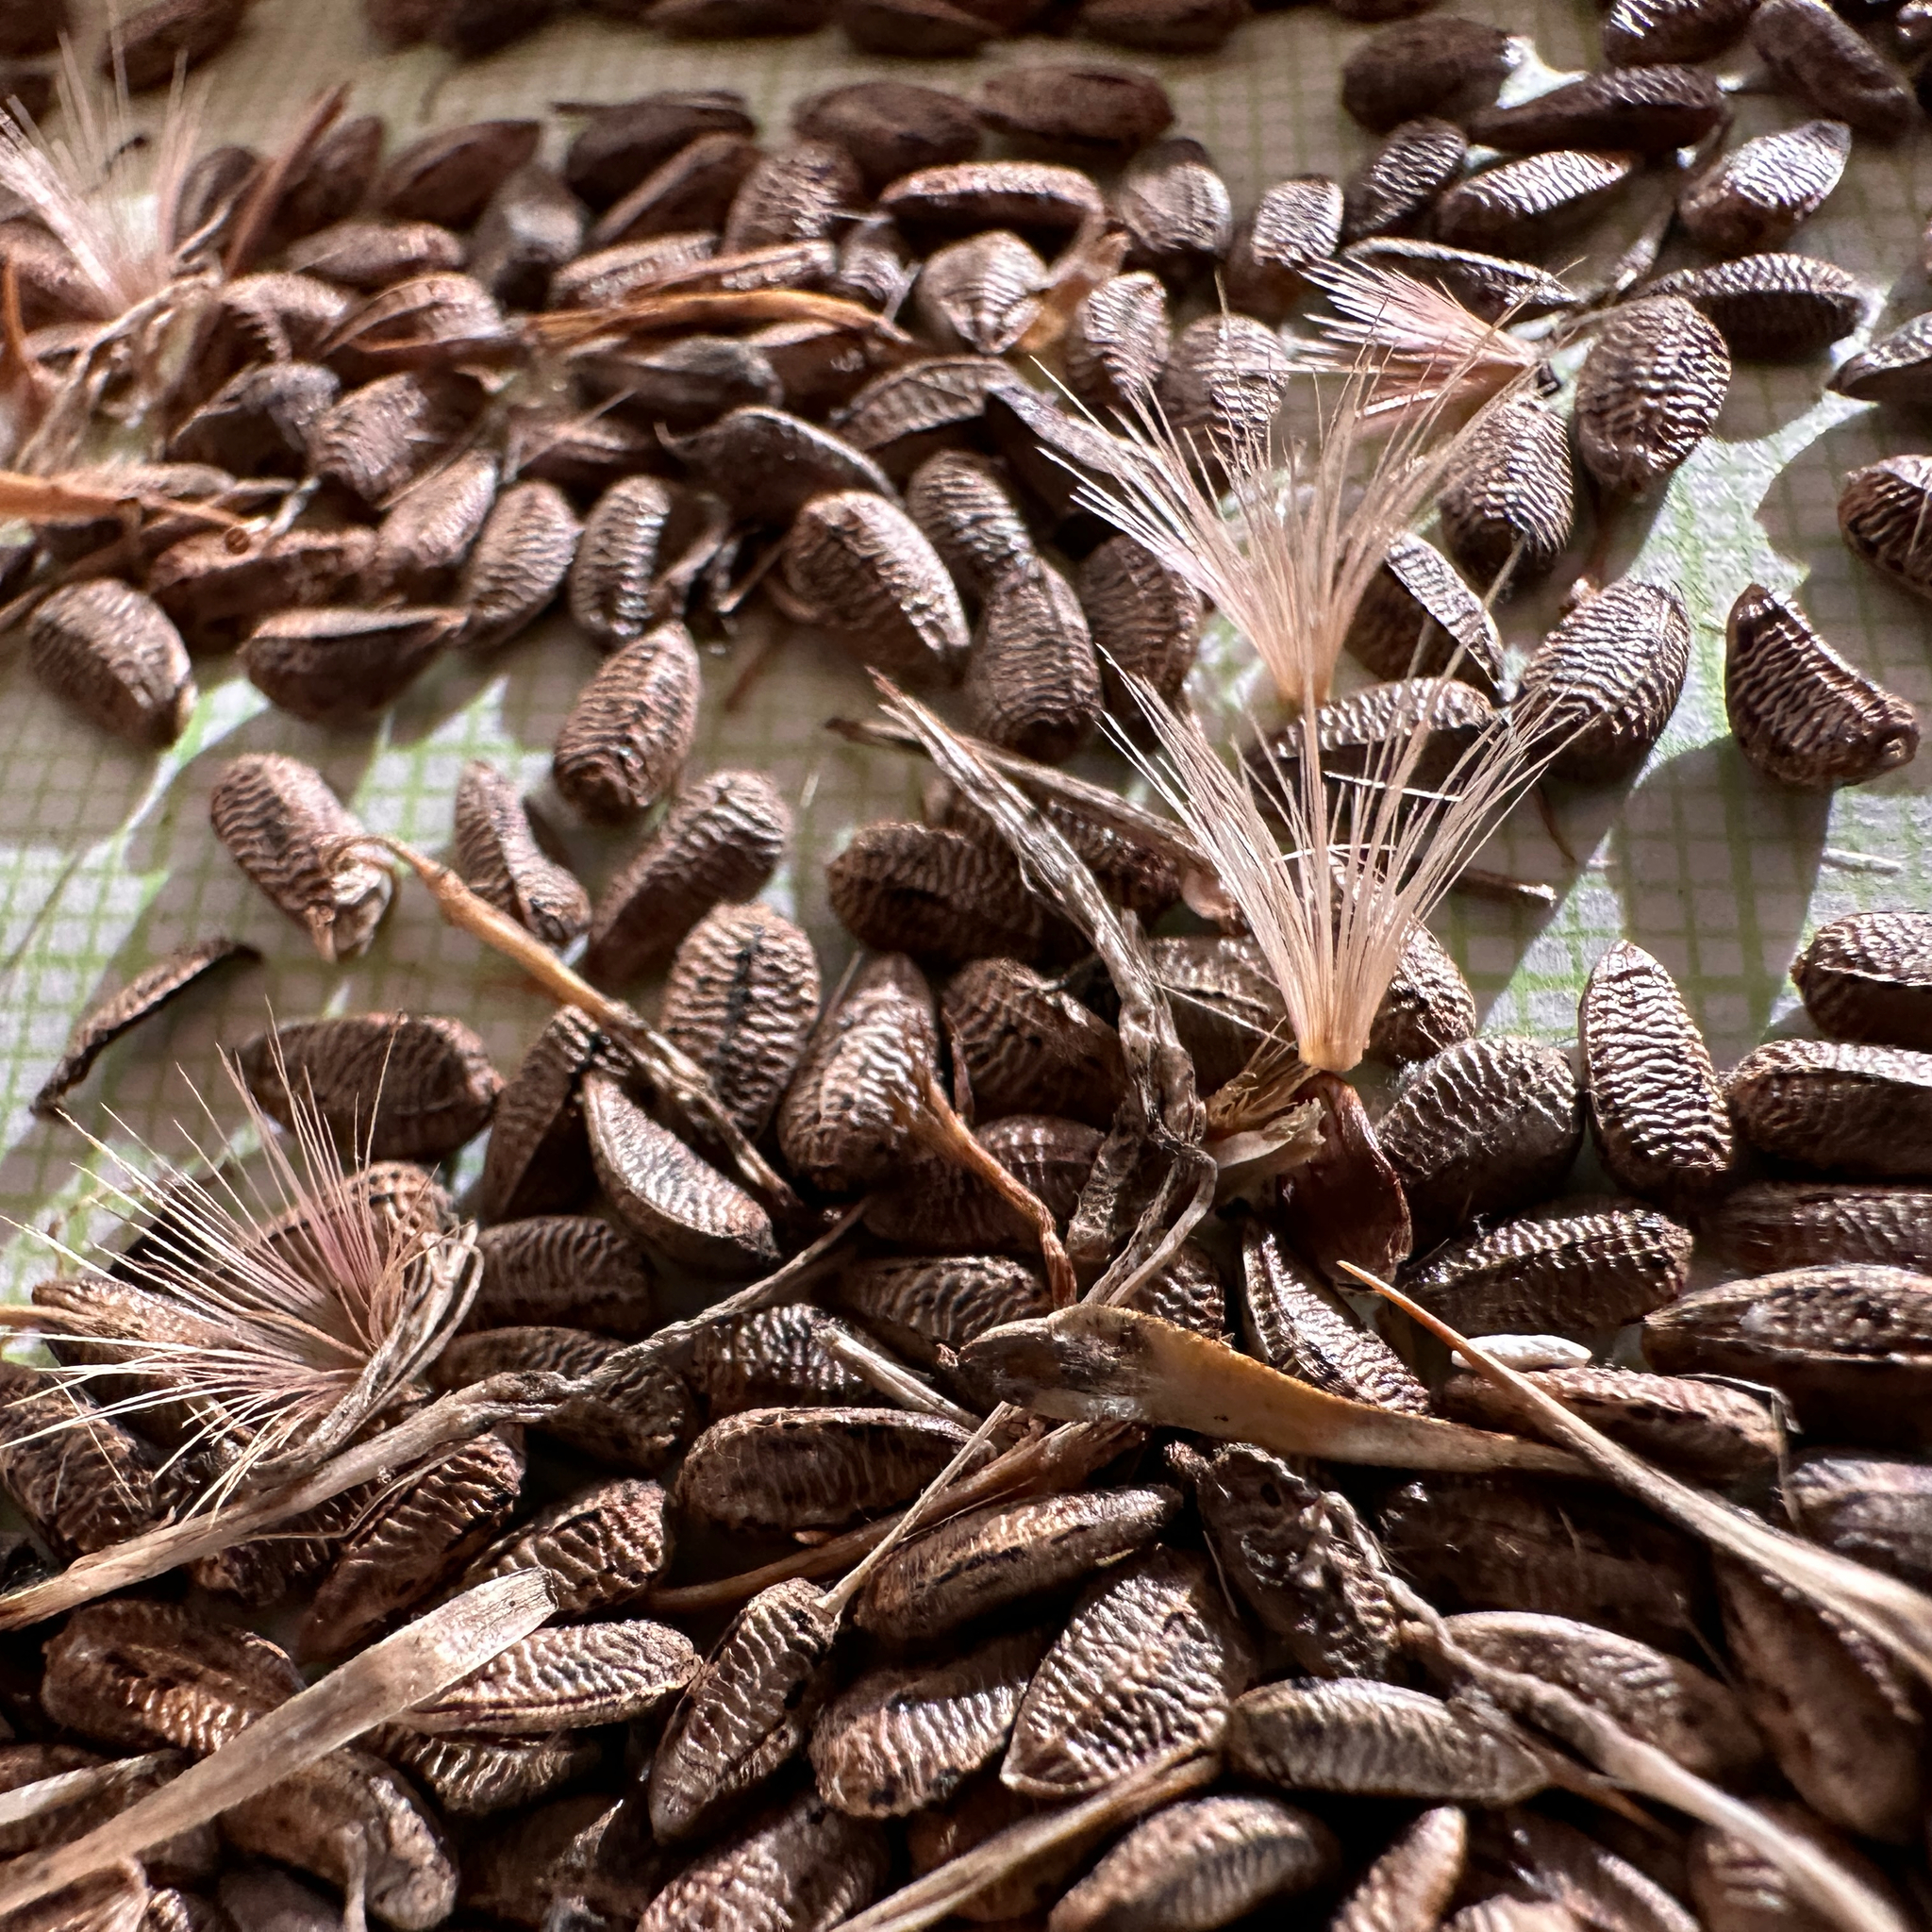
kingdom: Plantae
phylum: Tracheophyta
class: Magnoliopsida
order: Asterales
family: Asteraceae
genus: Onopordum
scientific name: Onopordum acanthium
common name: Scotch thistle
